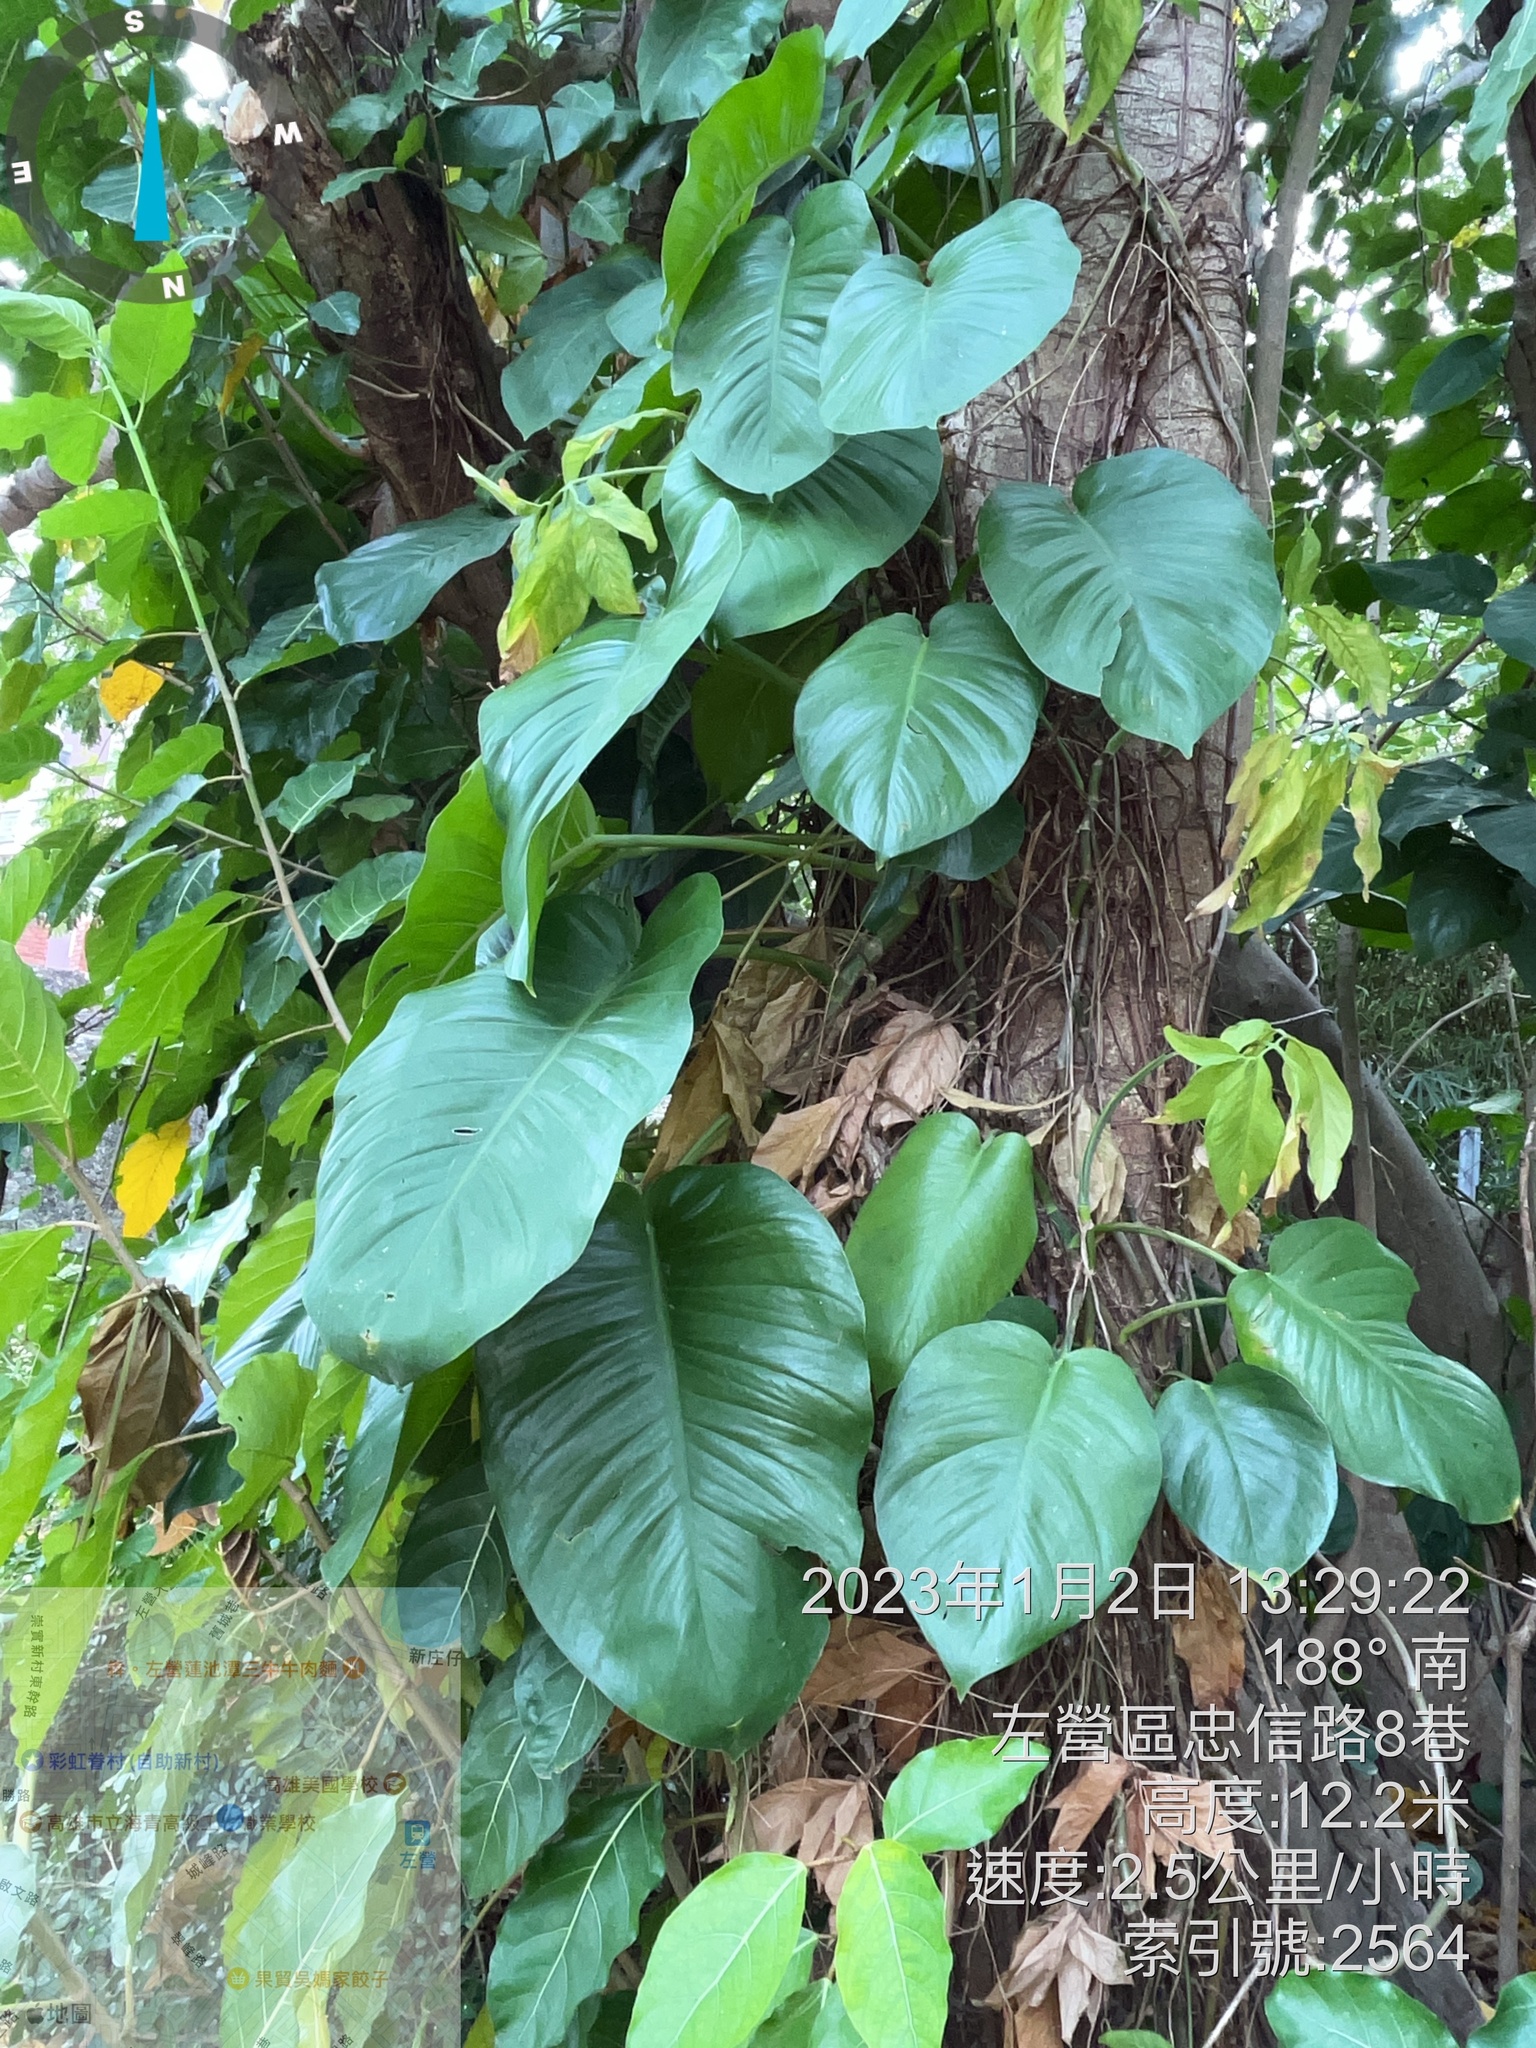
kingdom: Plantae
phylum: Tracheophyta
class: Liliopsida
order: Alismatales
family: Araceae
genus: Epipremnum
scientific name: Epipremnum aureum
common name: Golden hunter's-robe
